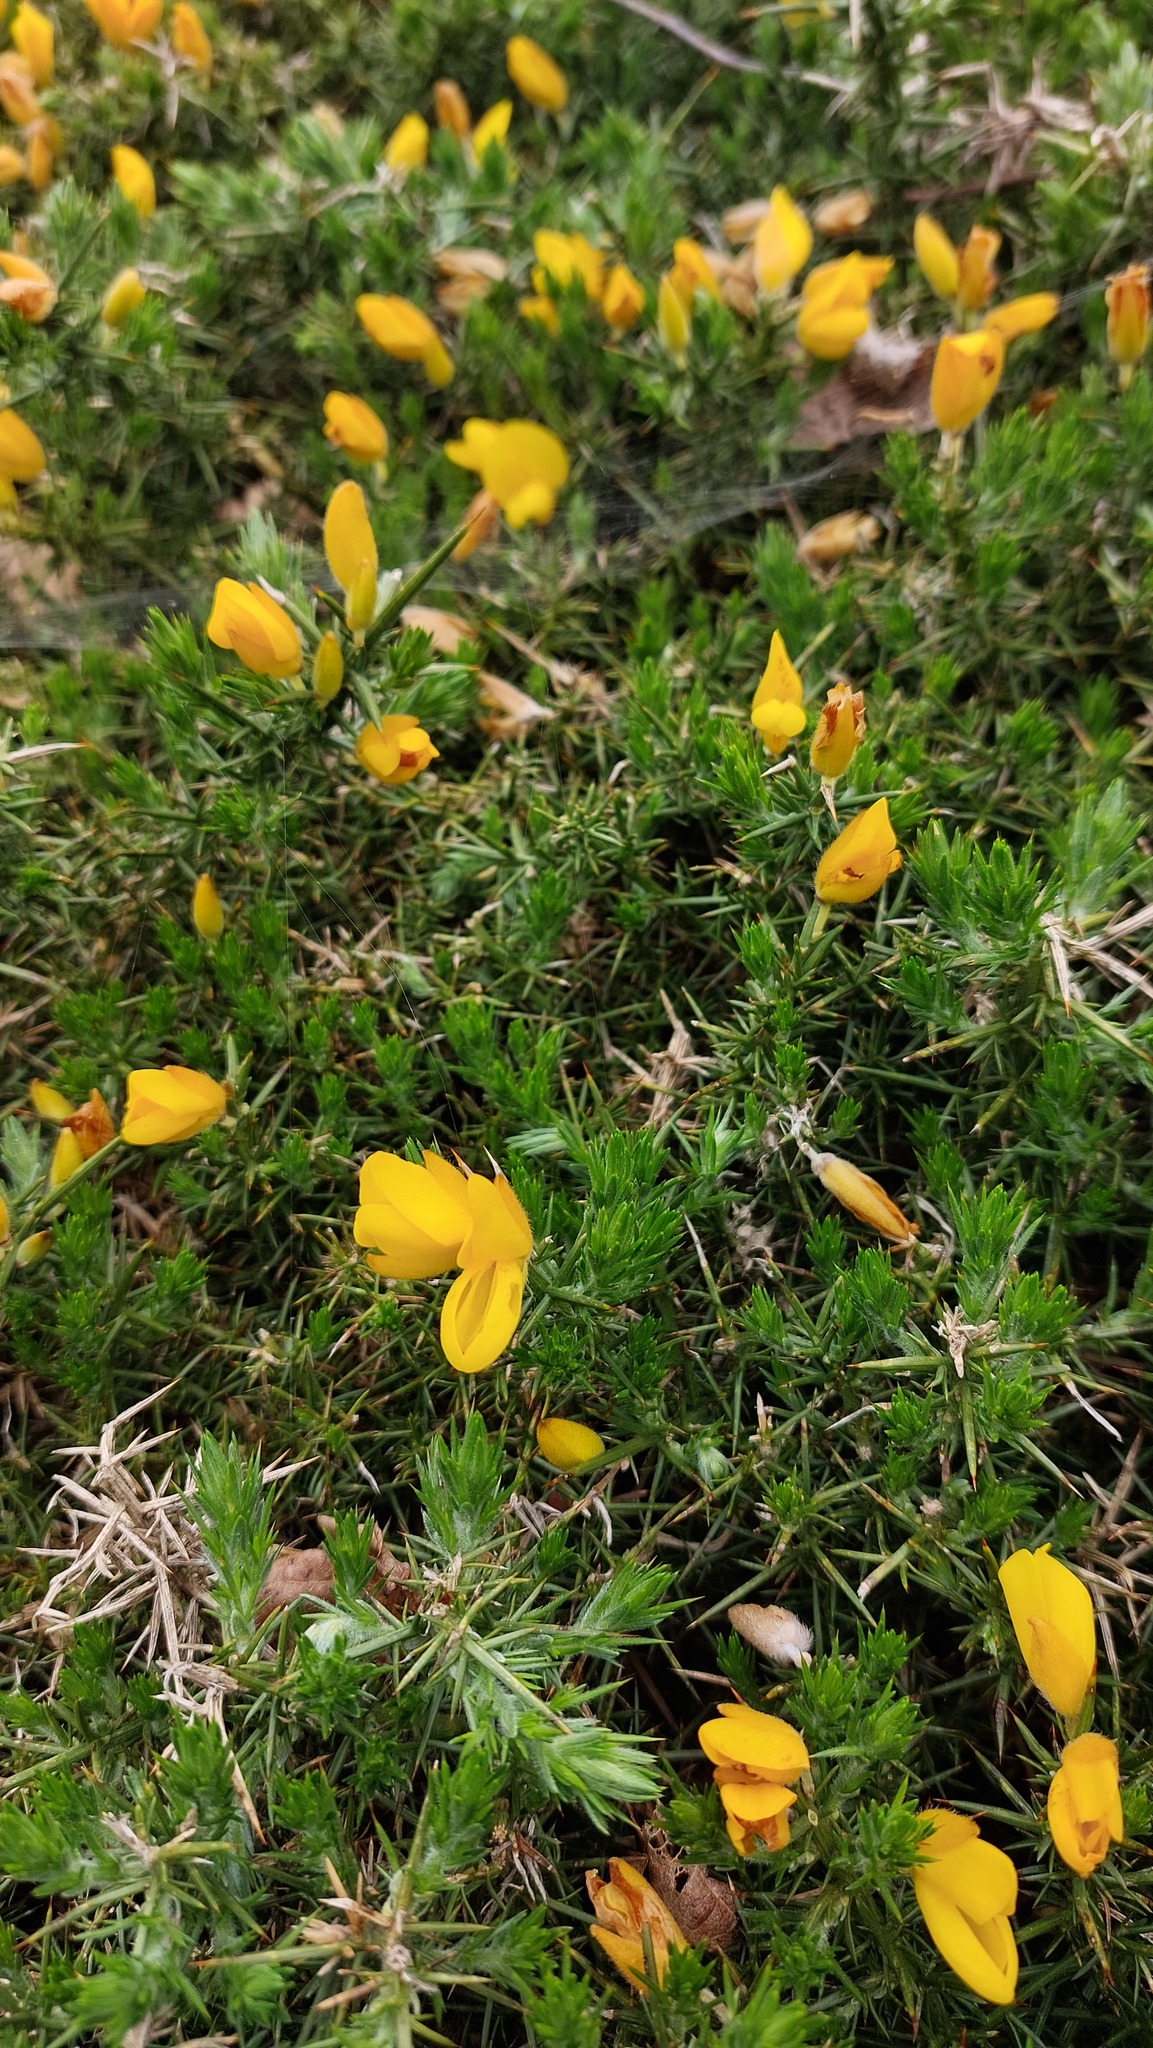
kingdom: Plantae
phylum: Tracheophyta
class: Magnoliopsida
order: Fabales
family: Fabaceae
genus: Ulex
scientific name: Ulex europaeus
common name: Common gorse
